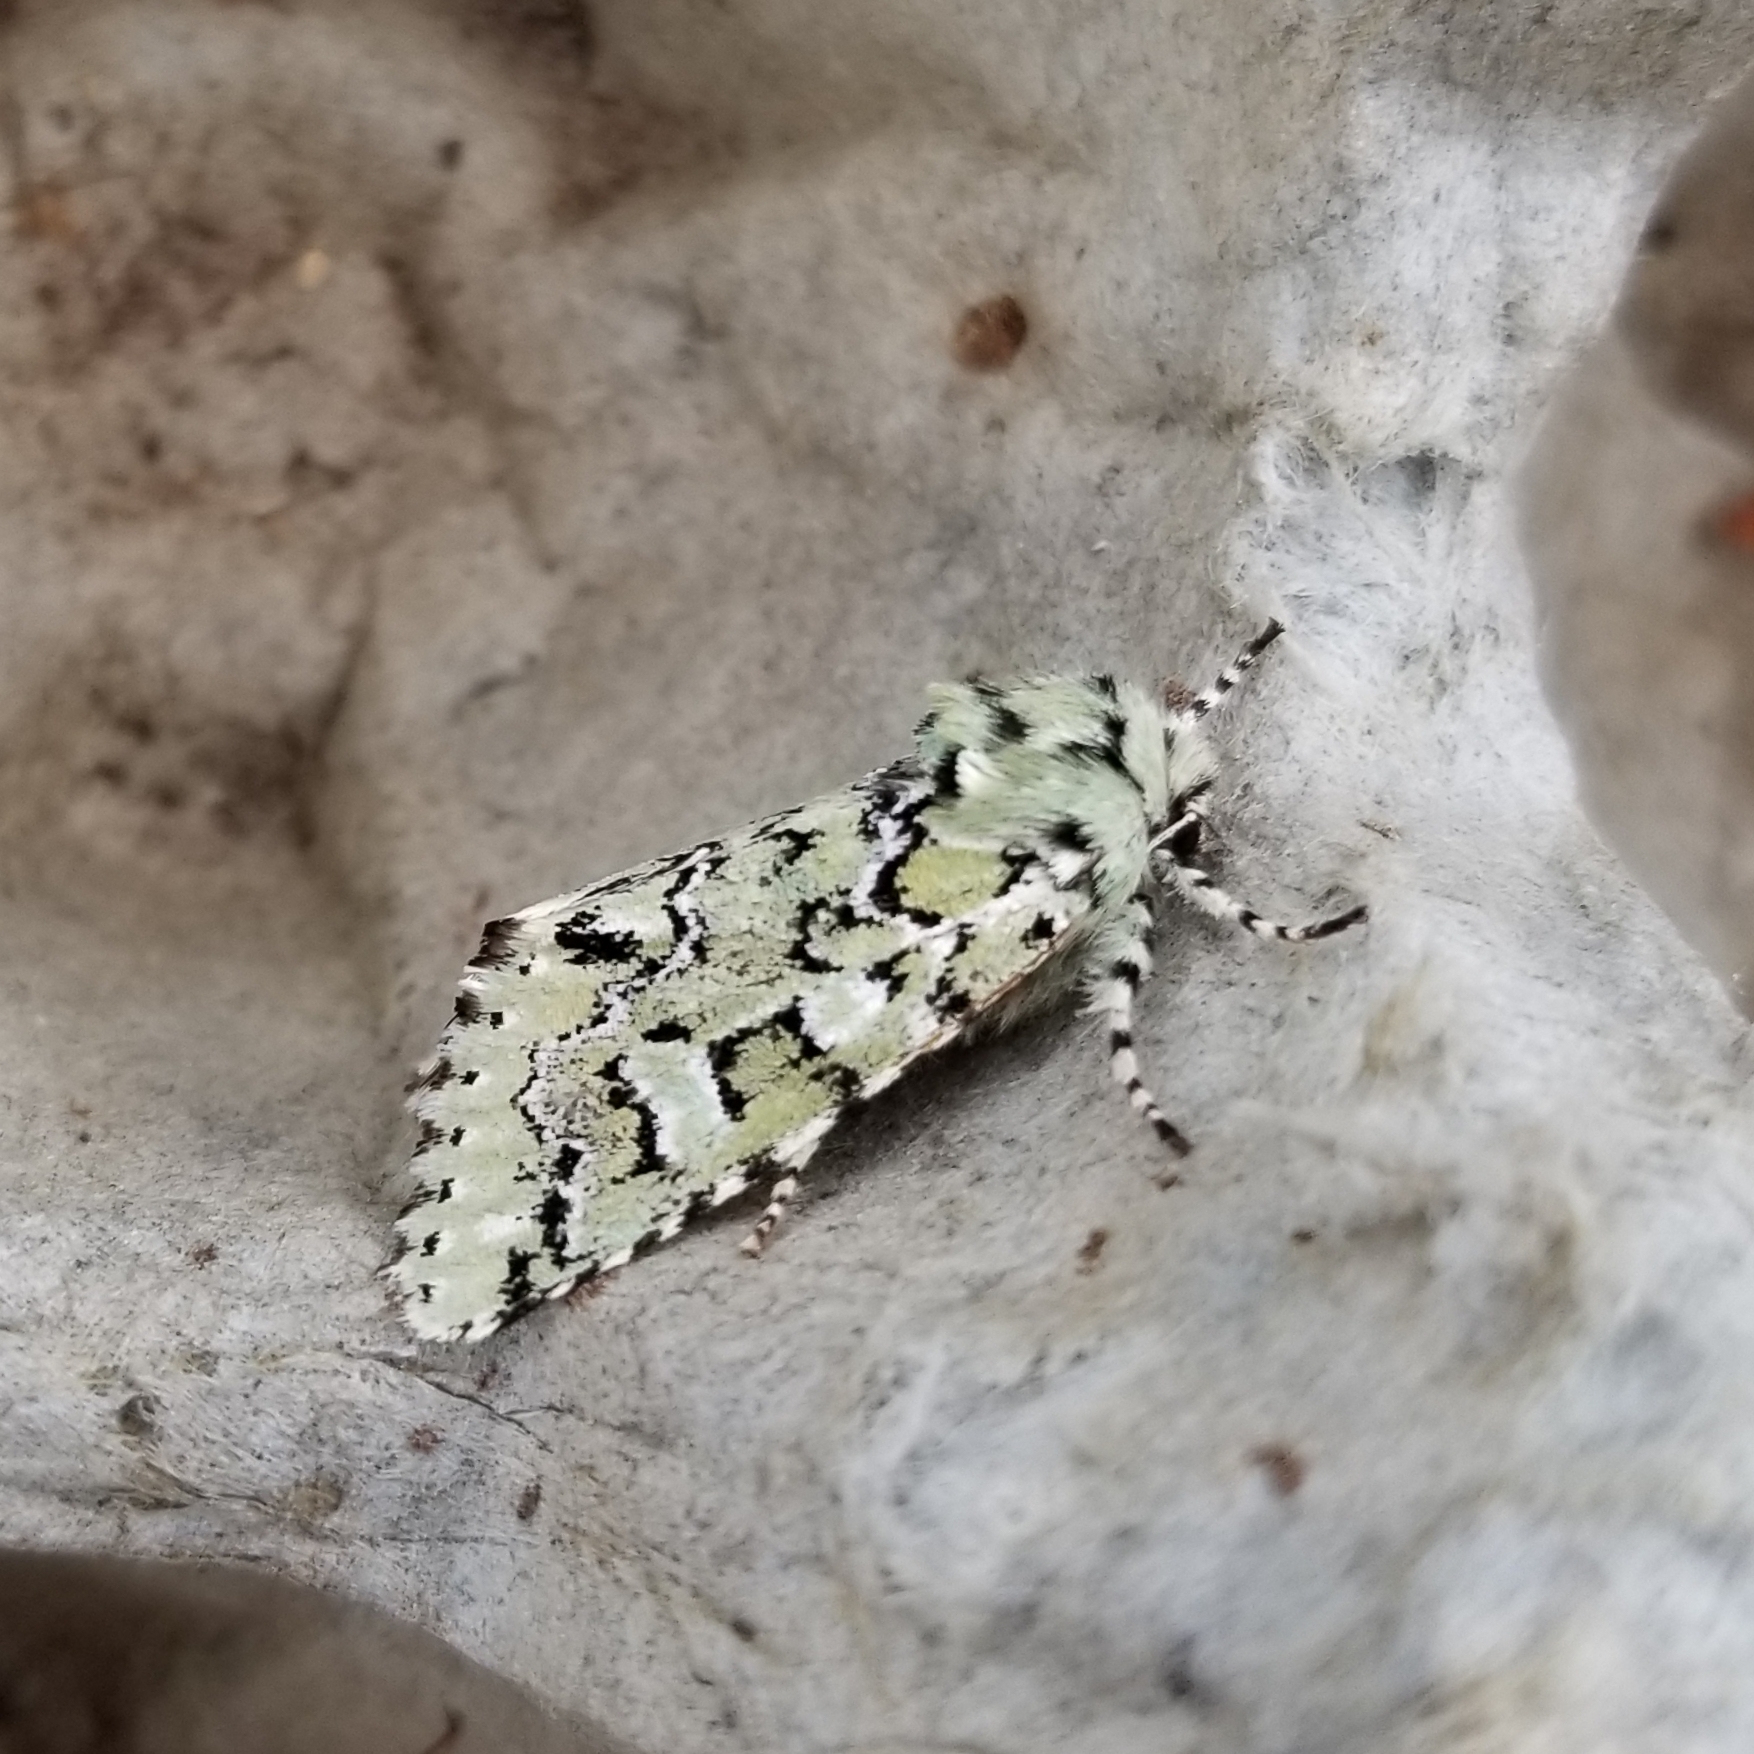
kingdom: Animalia
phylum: Arthropoda
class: Insecta
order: Lepidoptera
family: Noctuidae
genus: Feralia
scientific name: Feralia major
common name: Major sallow
